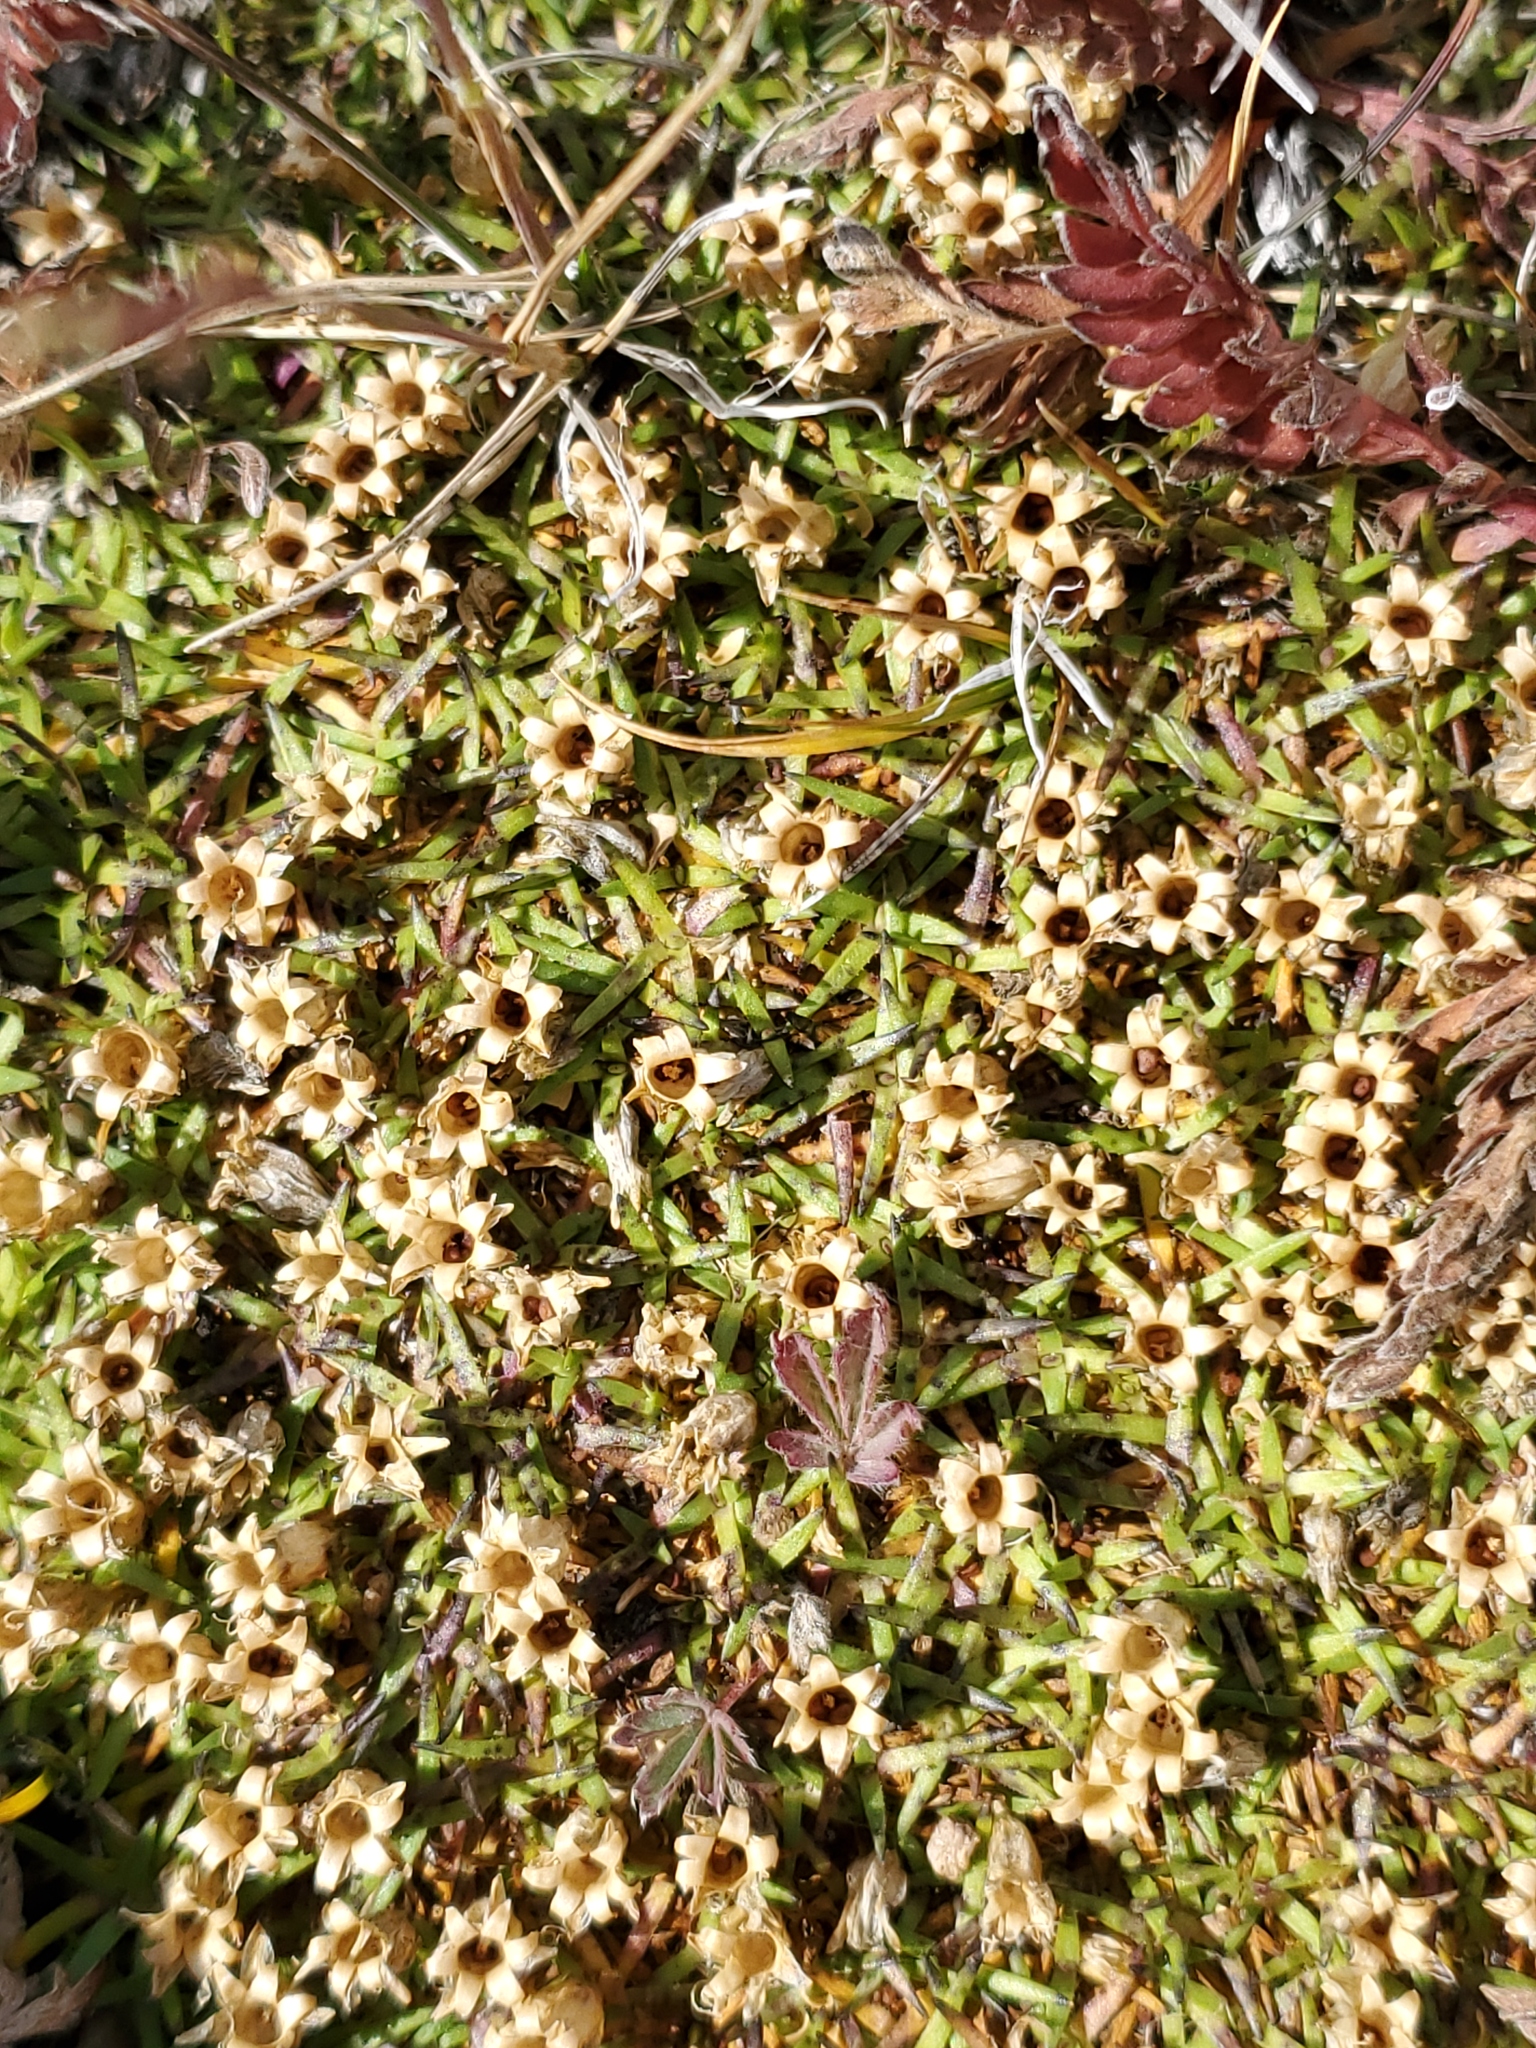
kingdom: Plantae
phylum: Tracheophyta
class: Magnoliopsida
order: Caryophyllales
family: Caryophyllaceae
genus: Silene
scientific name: Silene acaulis
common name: Moss campion
